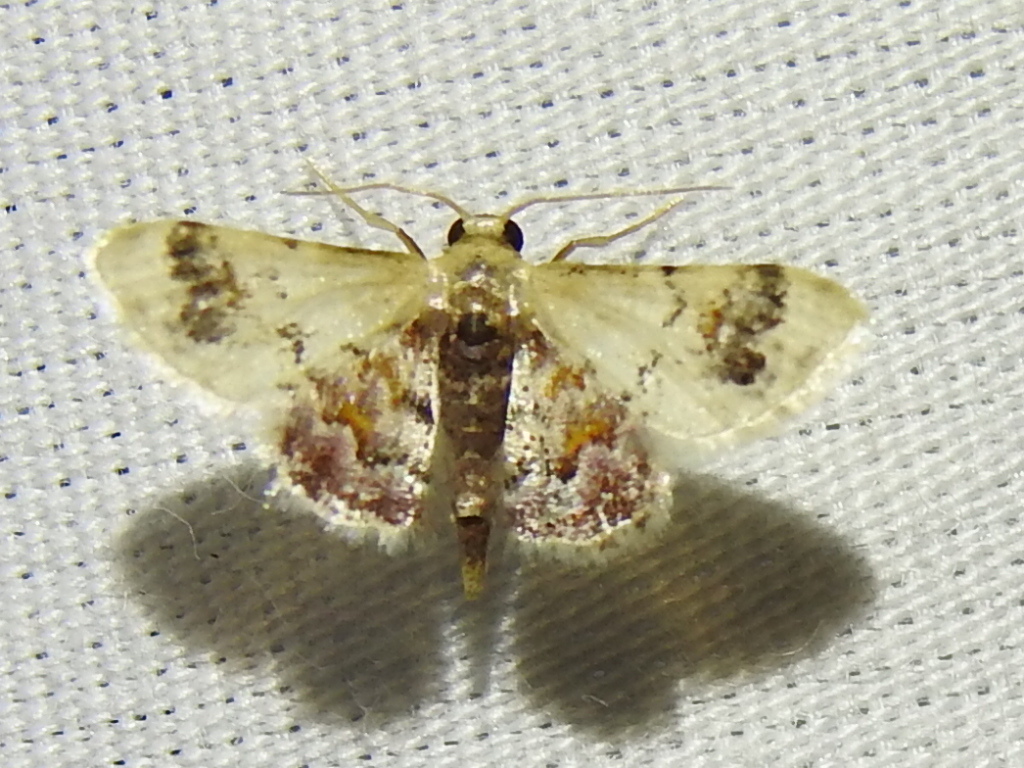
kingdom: Animalia
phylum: Arthropoda
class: Insecta
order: Lepidoptera
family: Geometridae
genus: Idaea
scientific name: Idaea asceta
